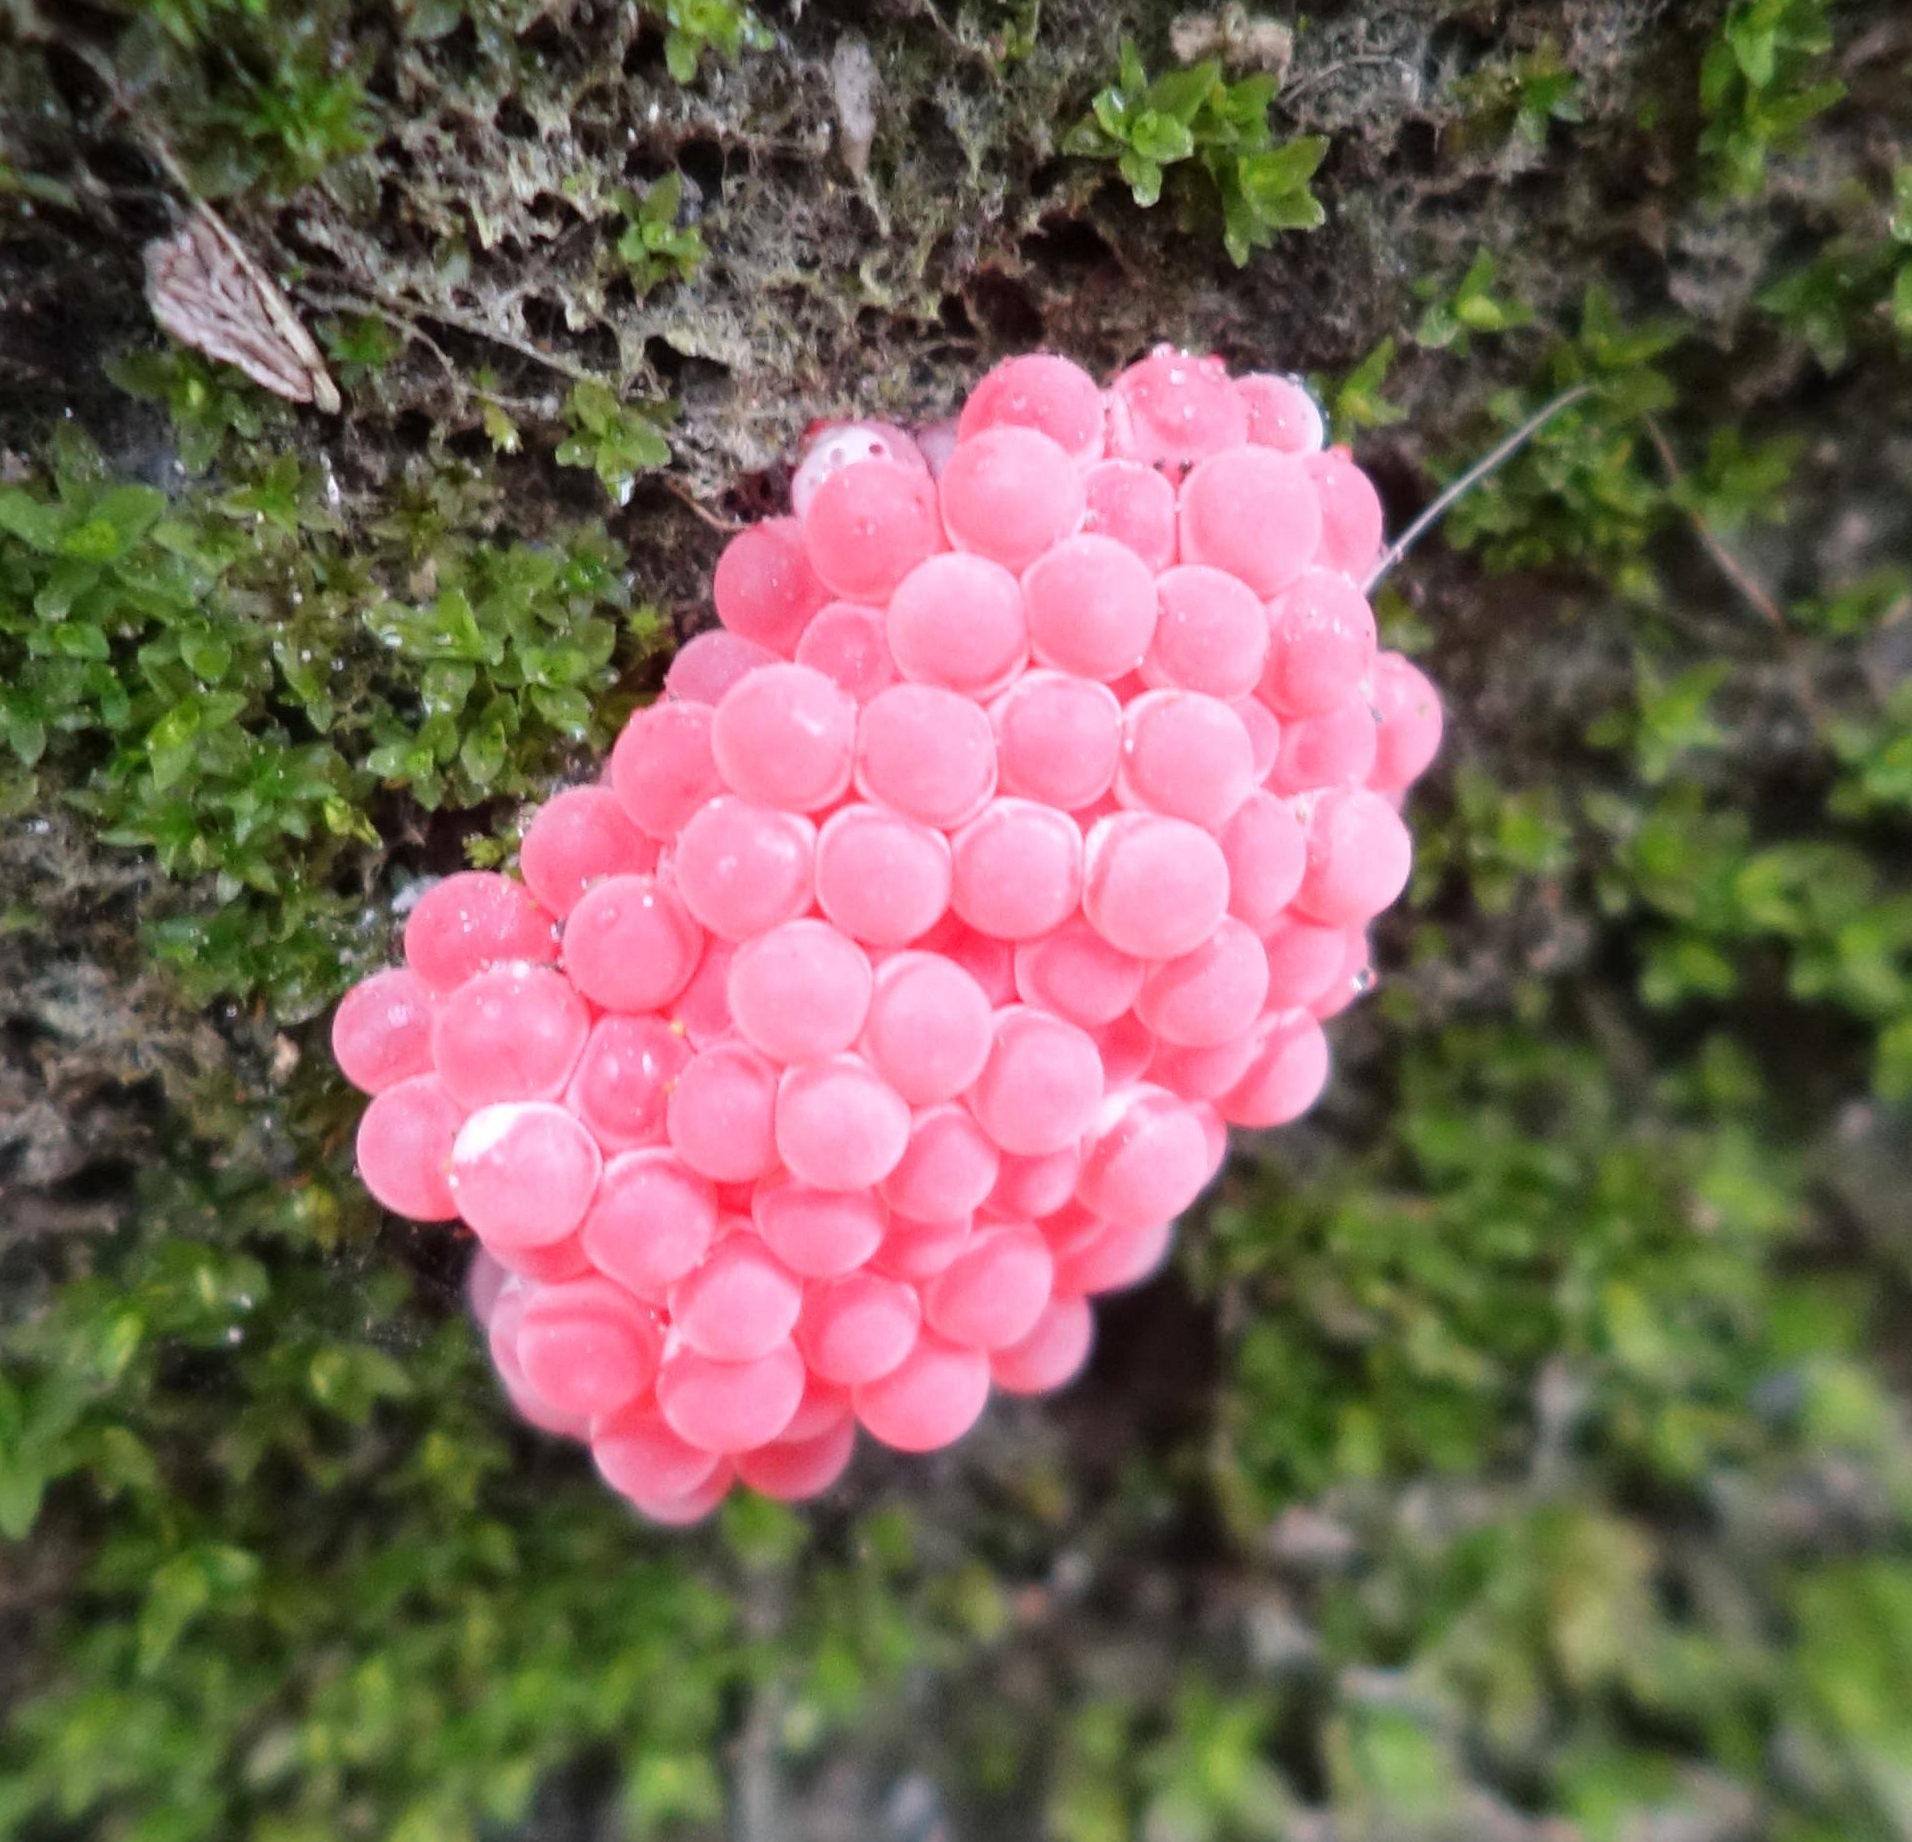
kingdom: Animalia
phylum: Mollusca
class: Gastropoda
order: Architaenioglossa
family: Ampullariidae
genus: Pomacea
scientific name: Pomacea canaliculata
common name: Channeled applesnail
